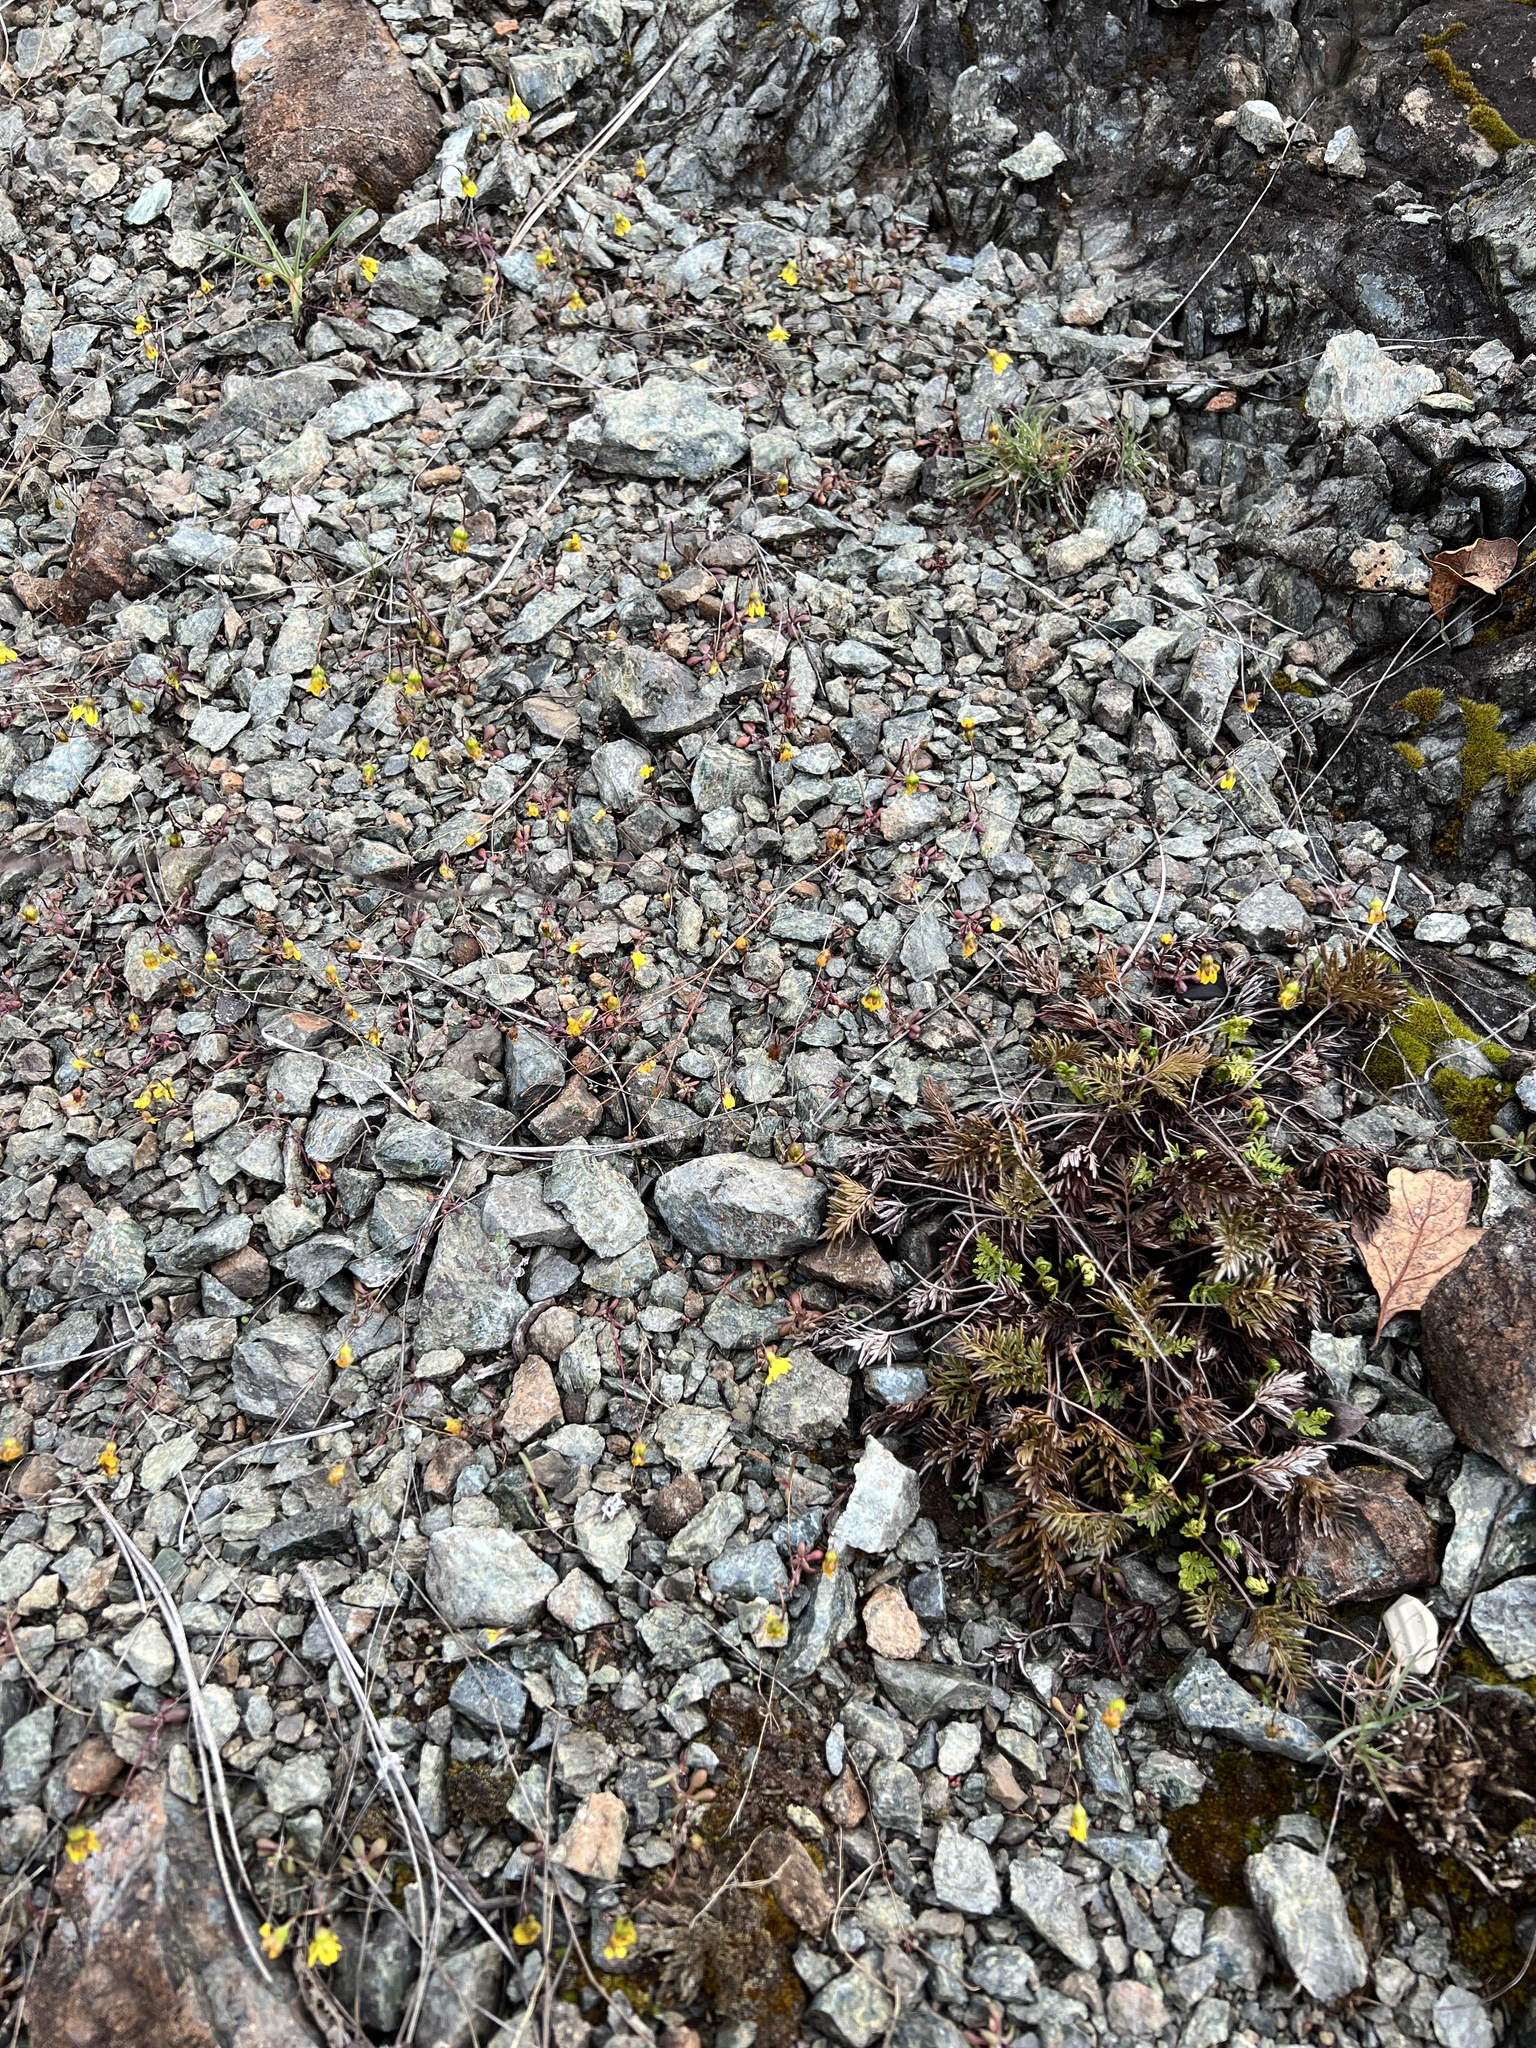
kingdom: Plantae
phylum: Tracheophyta
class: Magnoliopsida
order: Asterales
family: Asteraceae
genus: Crocidium
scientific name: Crocidium multicaule
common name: Common spring gold
